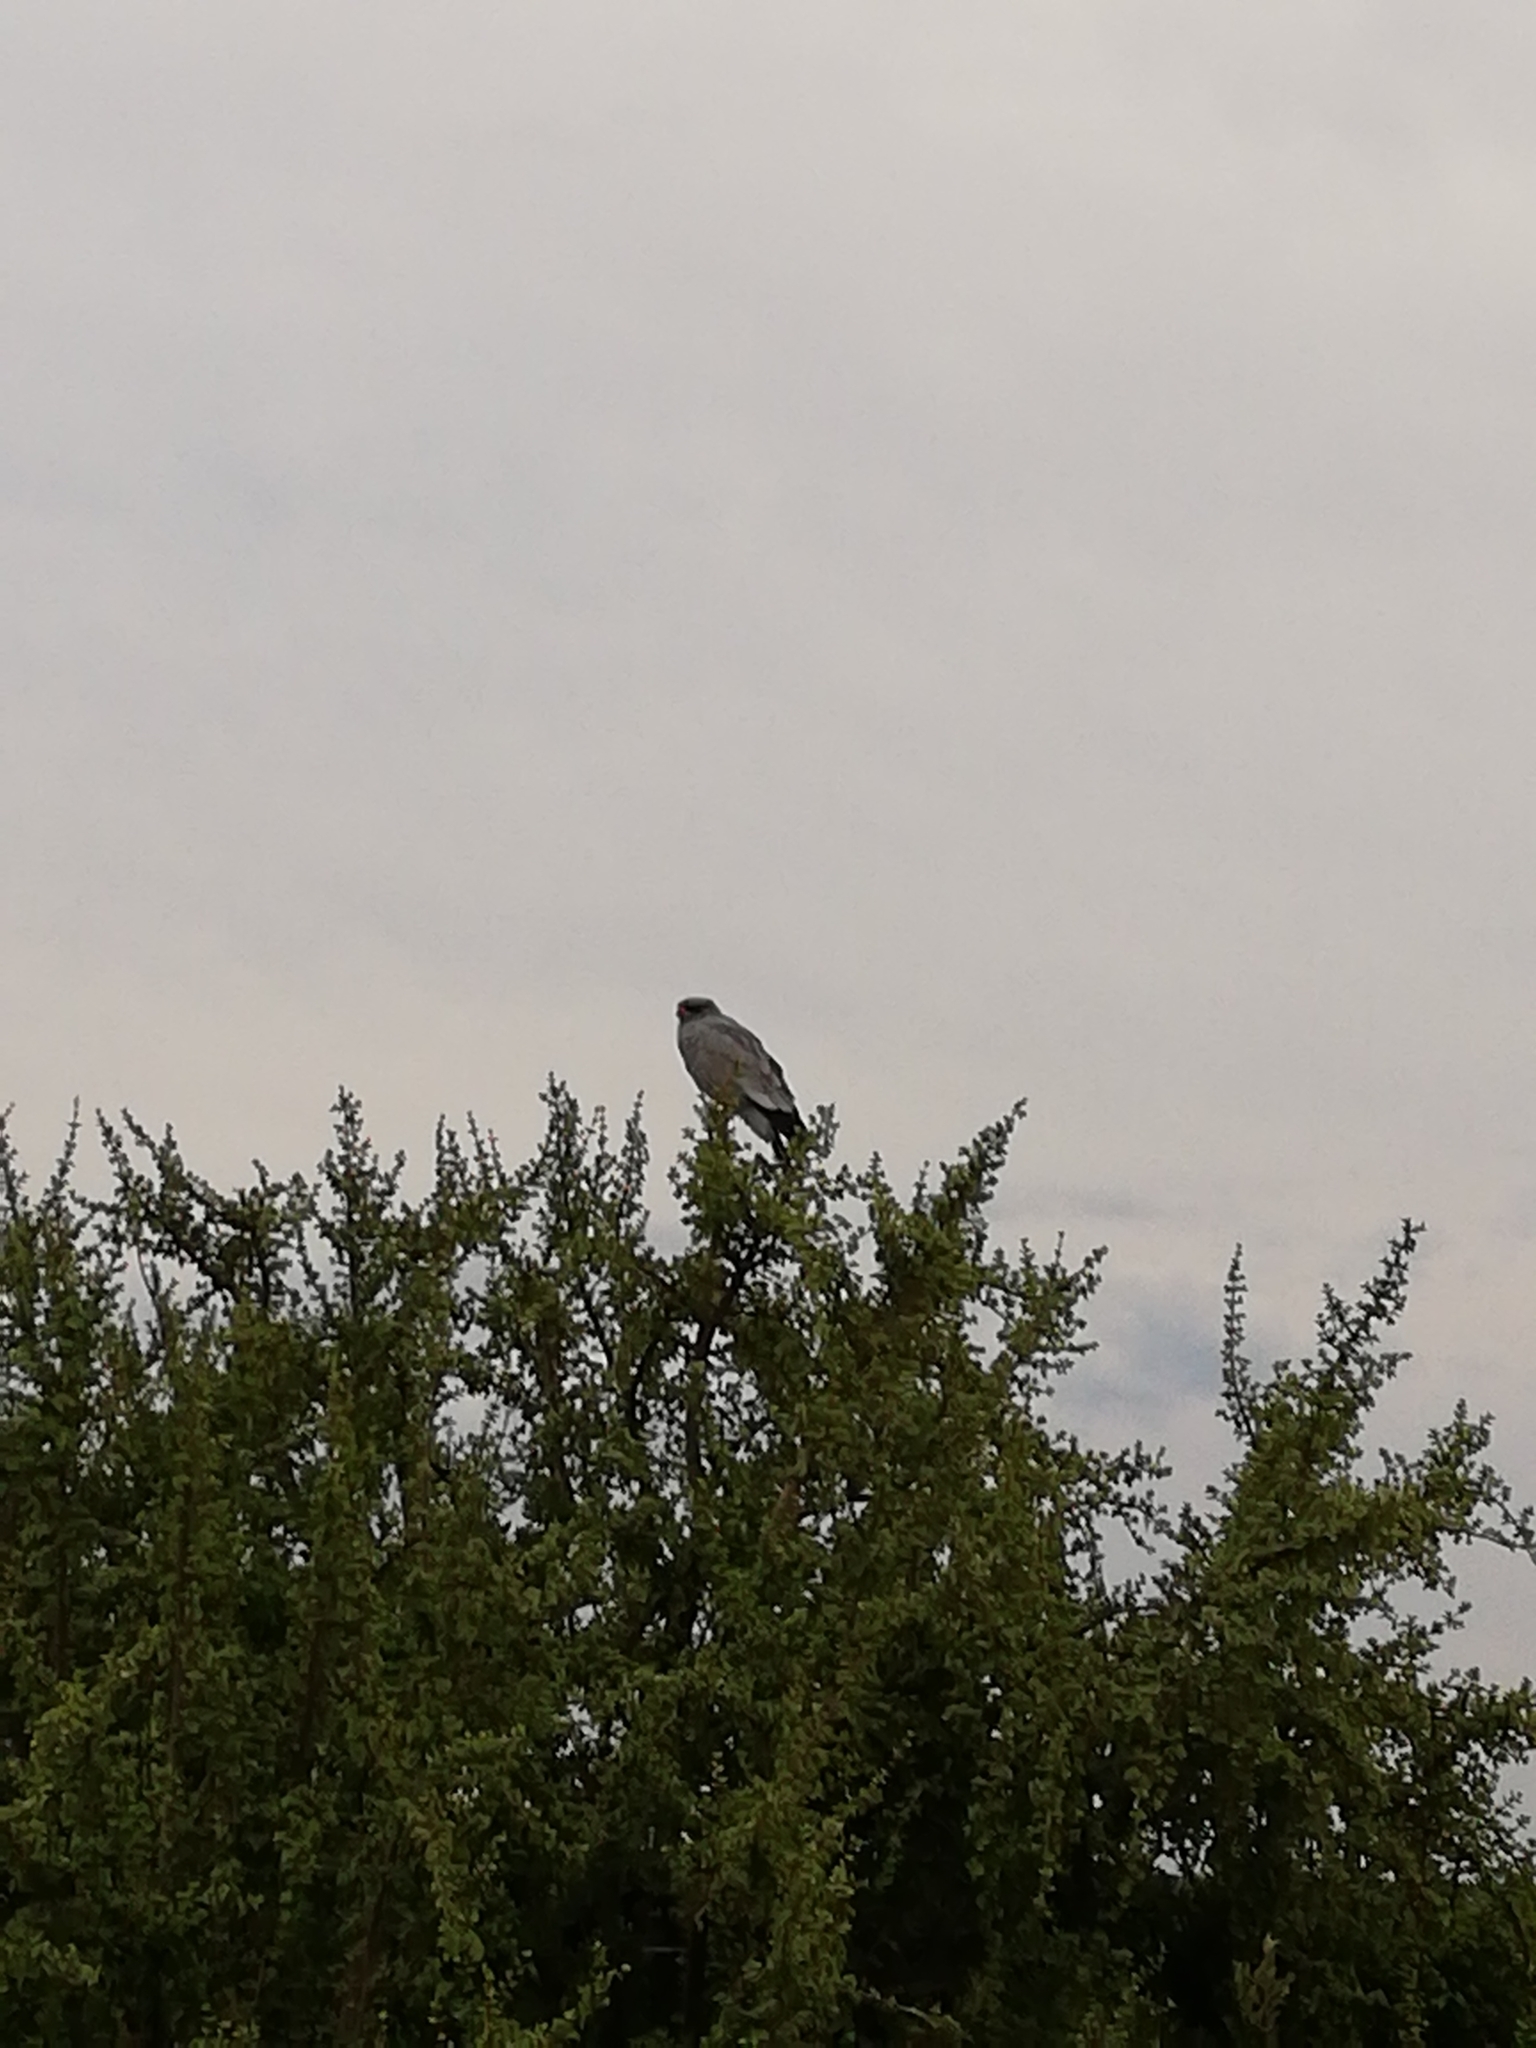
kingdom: Animalia
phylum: Chordata
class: Aves
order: Accipitriformes
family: Accipitridae
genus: Melierax
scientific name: Melierax canorus
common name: Pale chanting-goshawk
